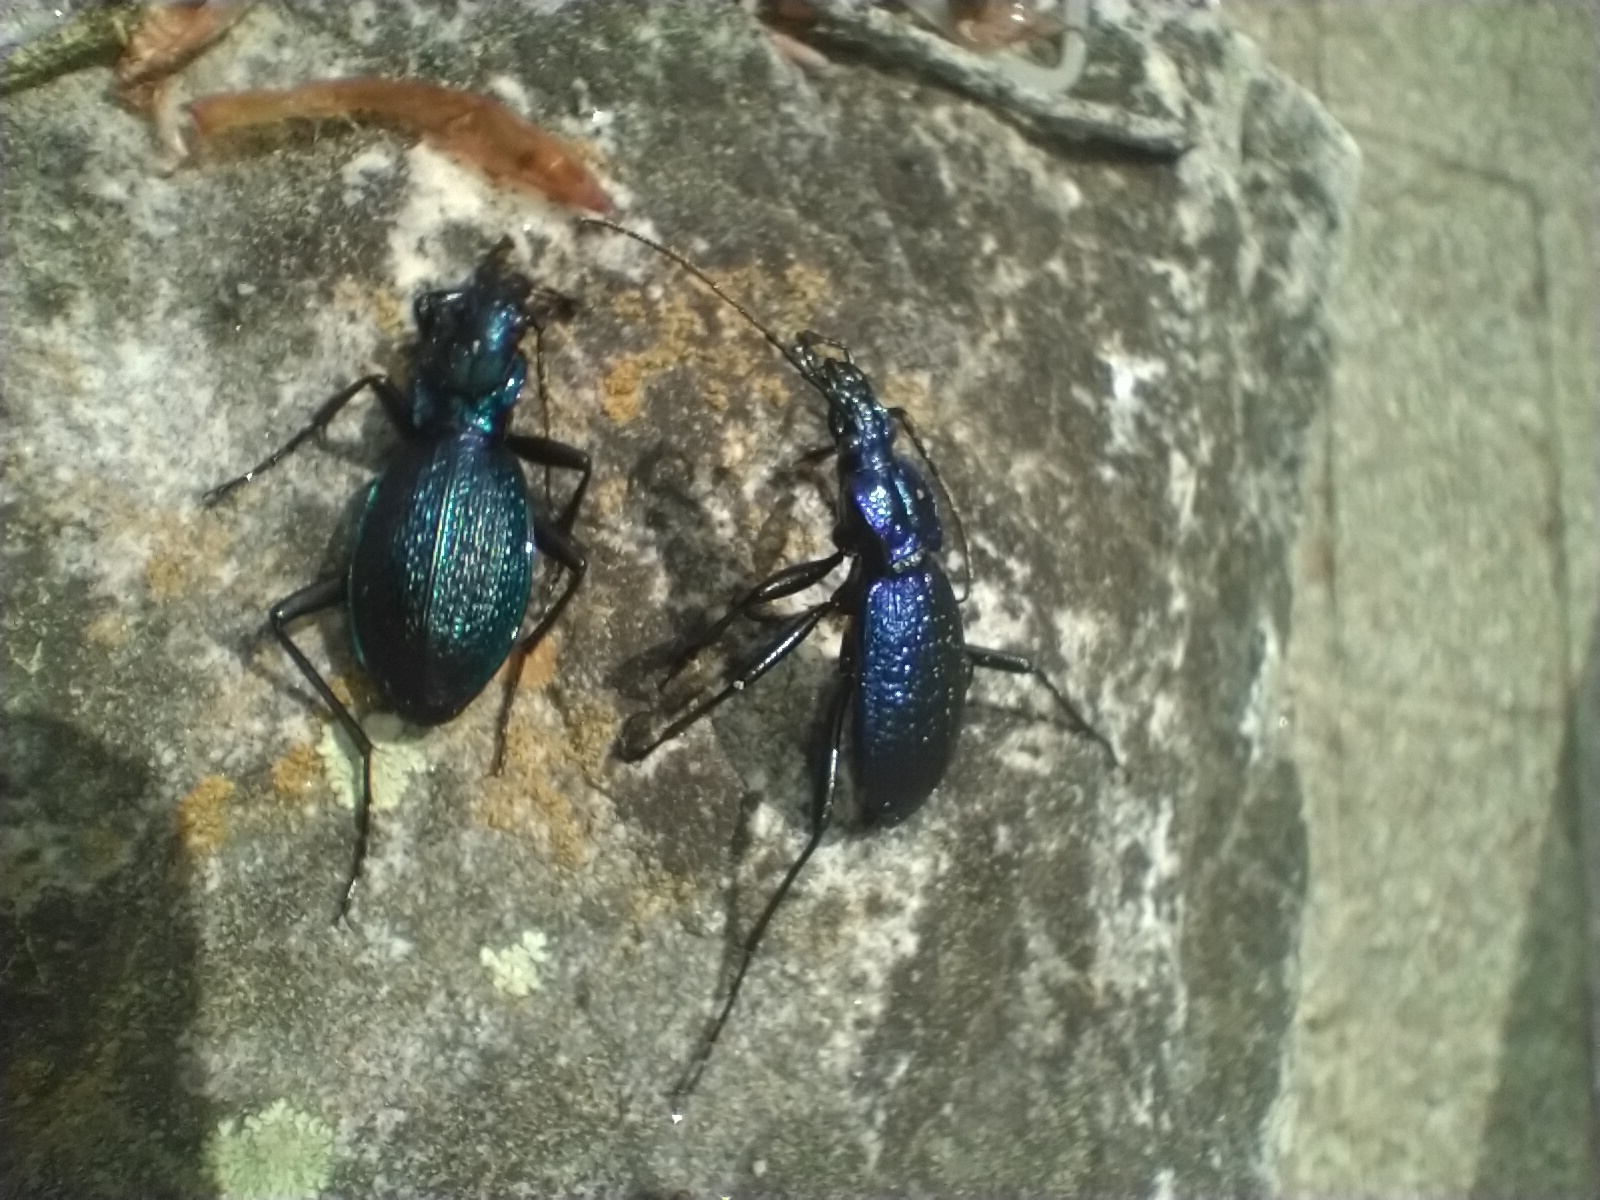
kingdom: Animalia
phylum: Arthropoda
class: Insecta
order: Coleoptera
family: Carabidae
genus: Carabus
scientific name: Carabus intricatus
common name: Blue ground beetle
